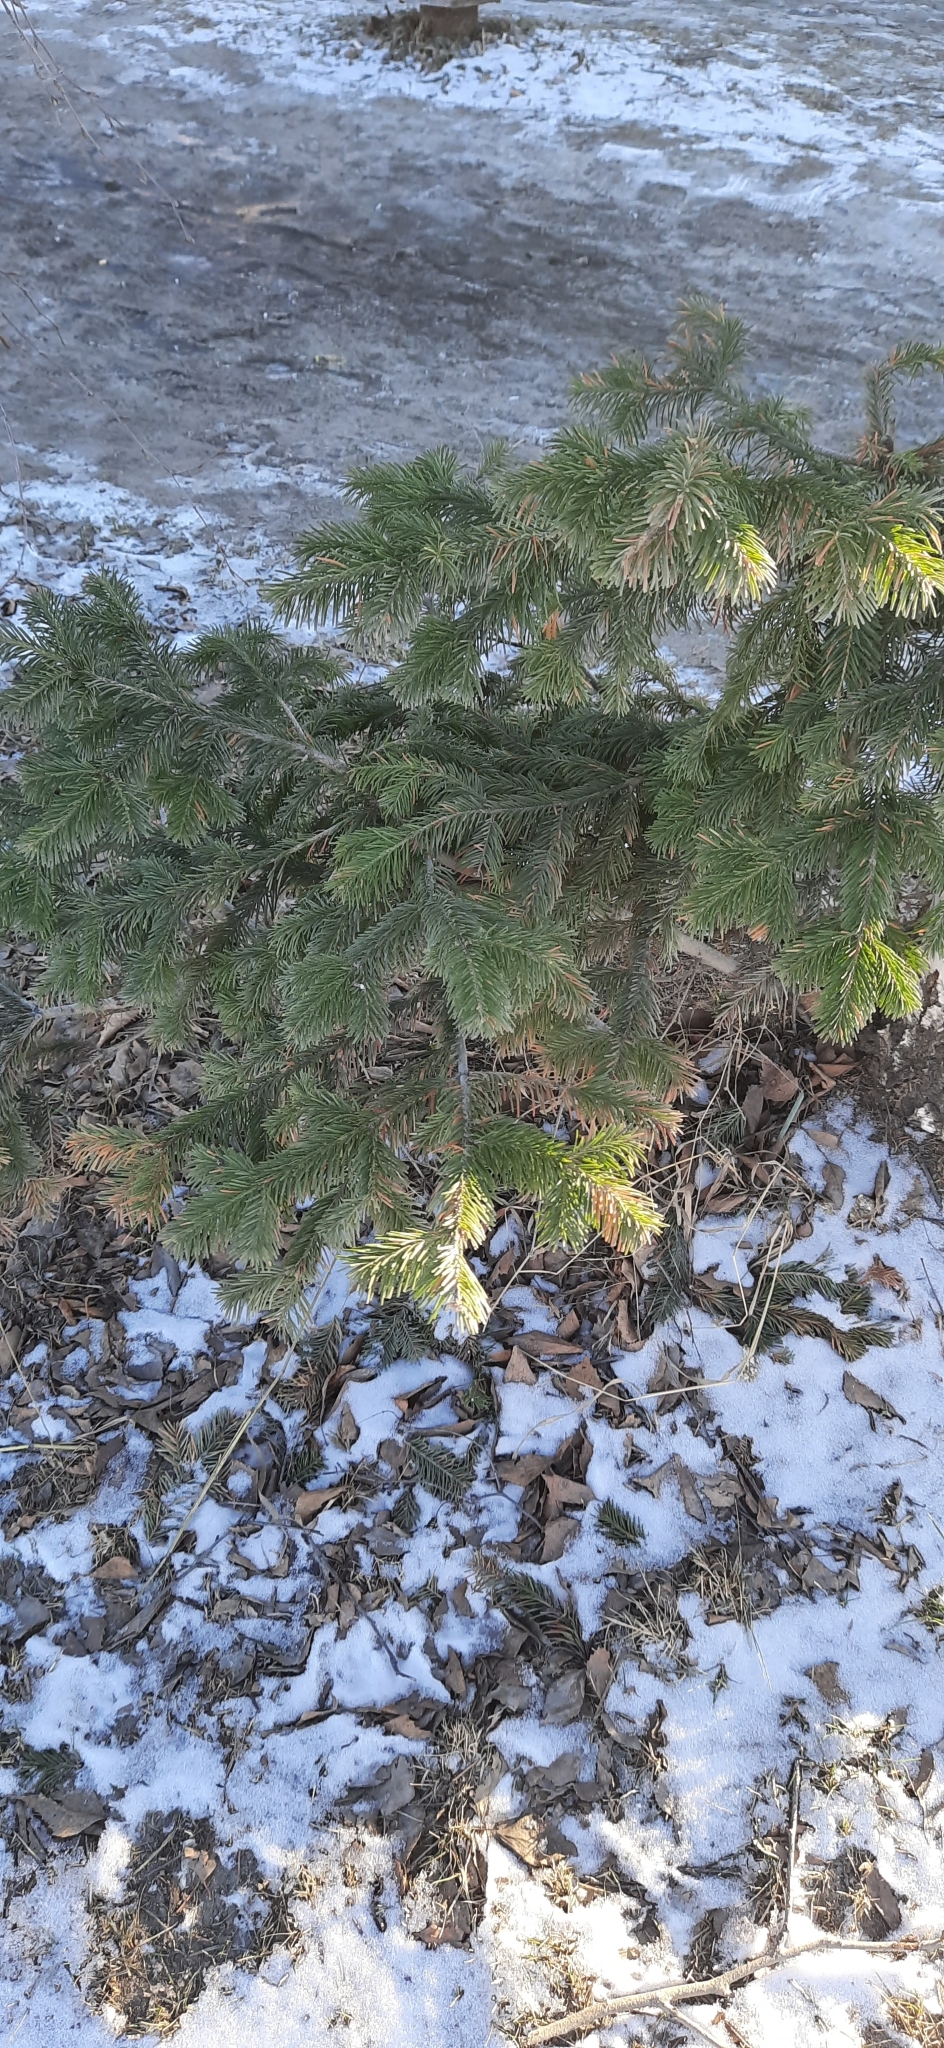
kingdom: Plantae
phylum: Tracheophyta
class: Pinopsida
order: Pinales
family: Pinaceae
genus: Abies
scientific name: Abies sibirica
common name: Siberian fir
